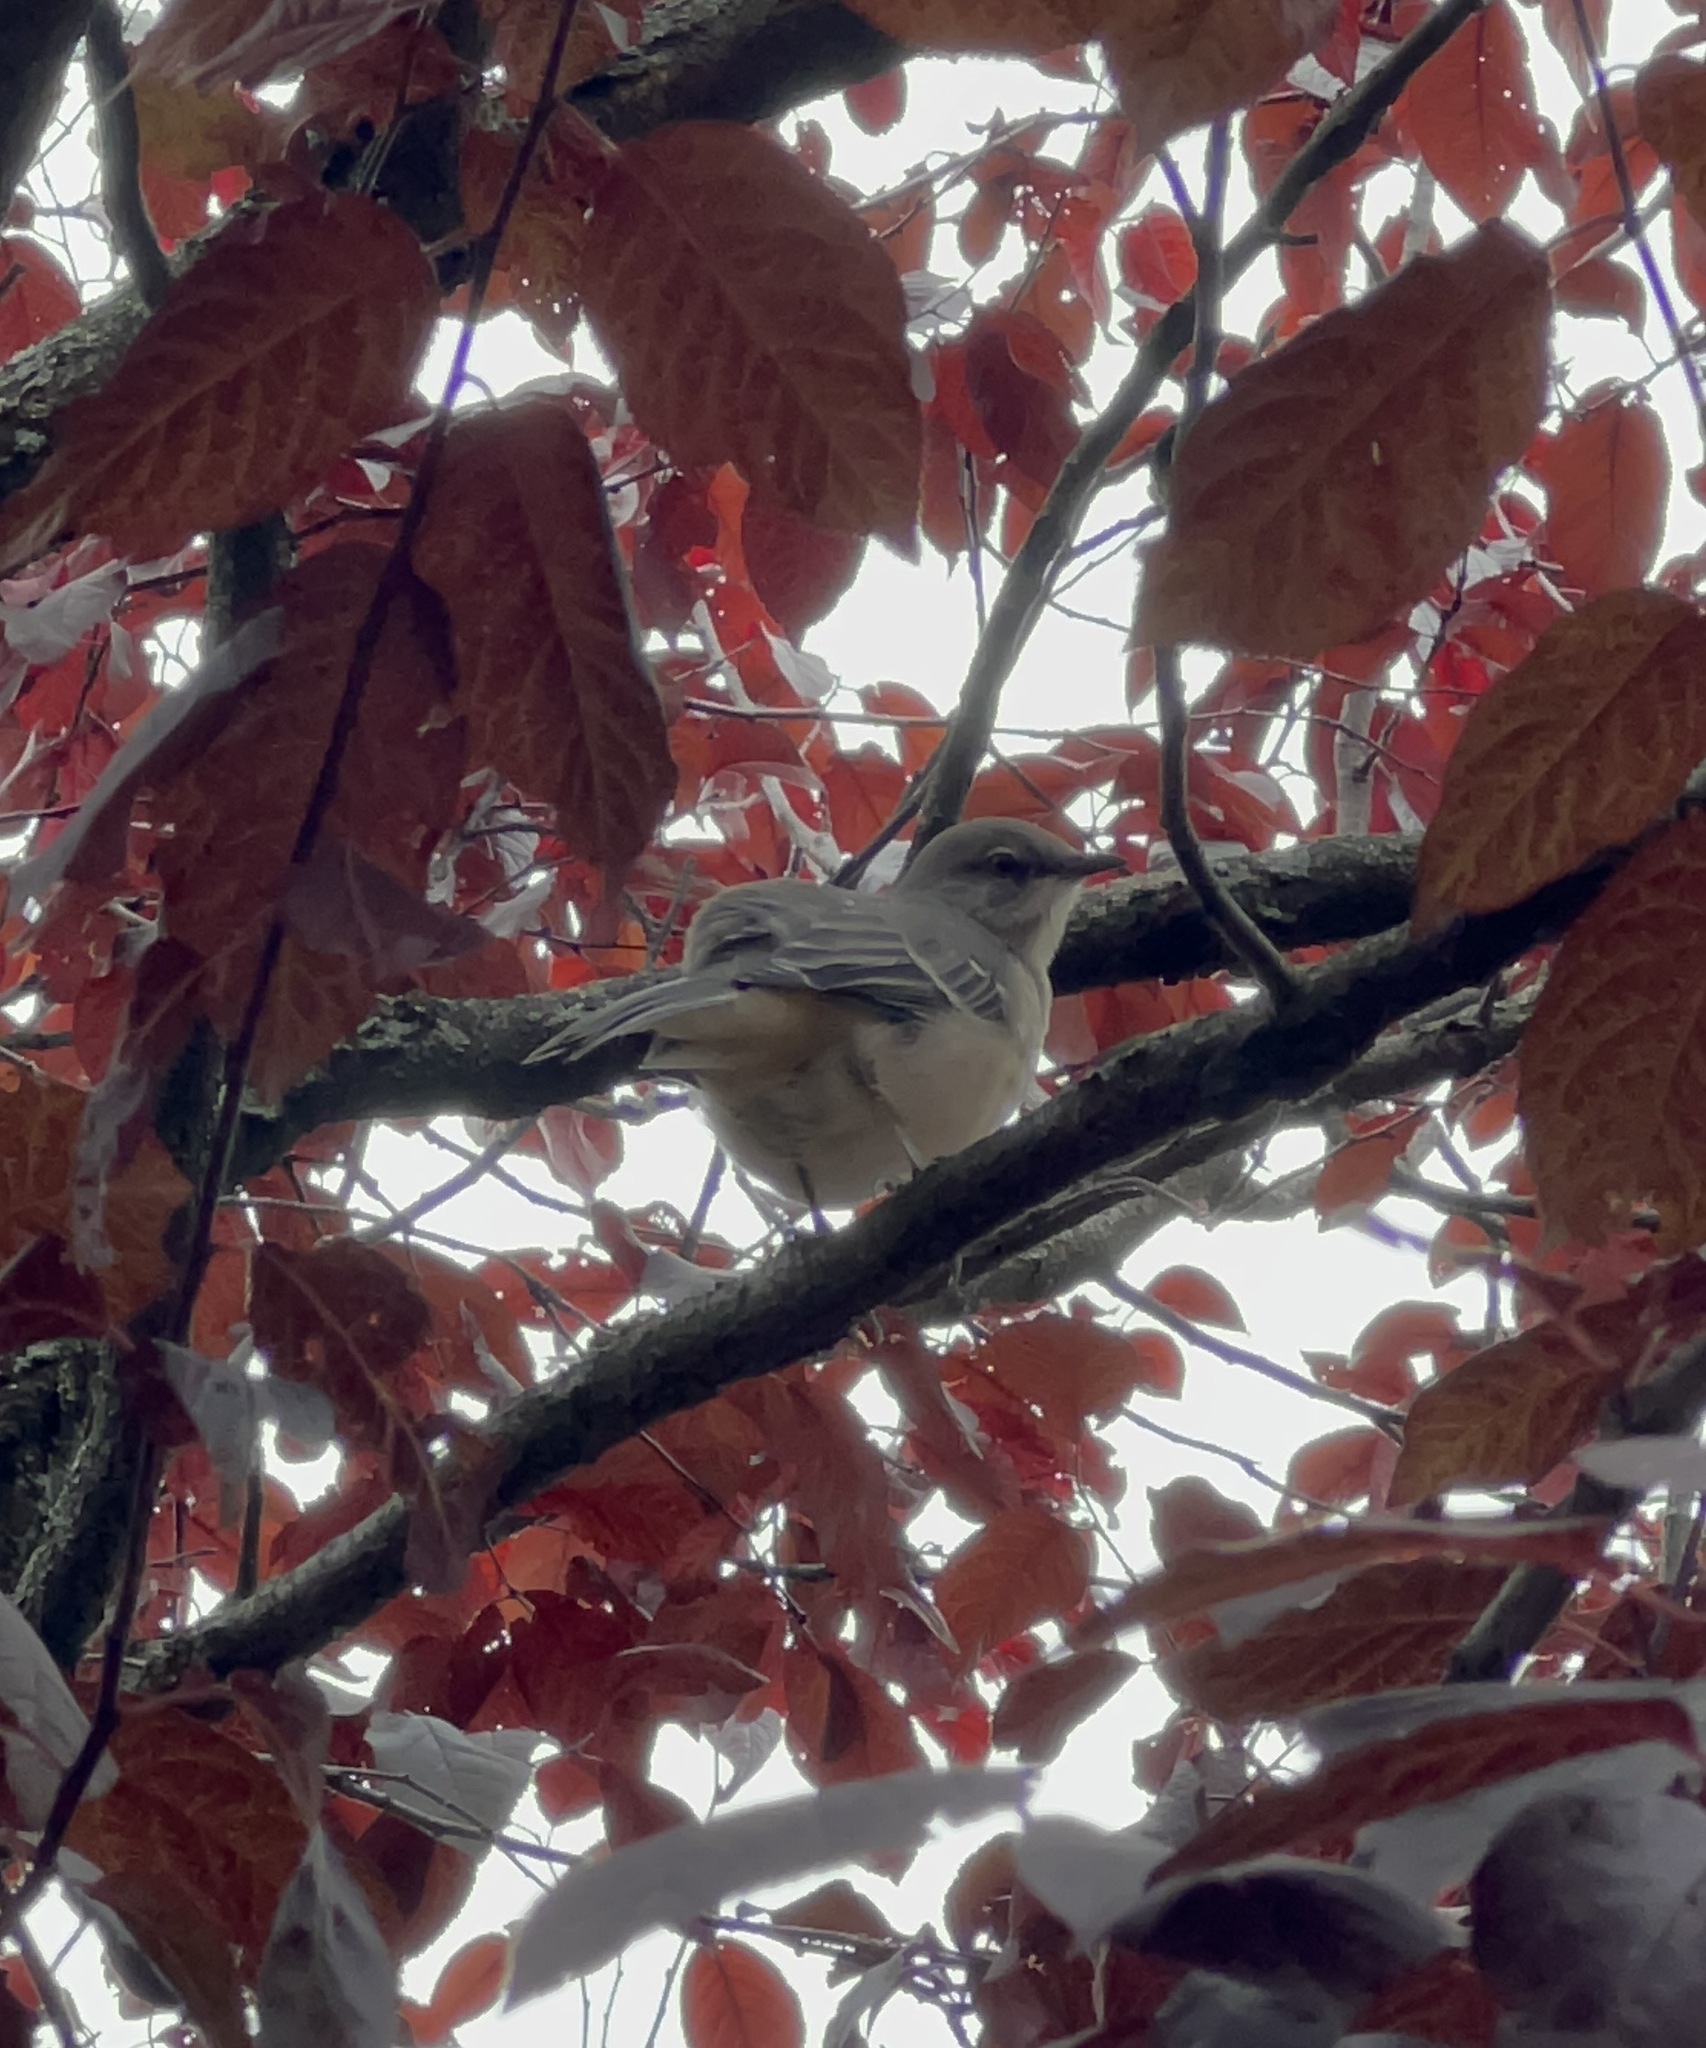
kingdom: Animalia
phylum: Chordata
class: Aves
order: Passeriformes
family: Mimidae
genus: Mimus
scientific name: Mimus polyglottos
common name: Northern mockingbird
